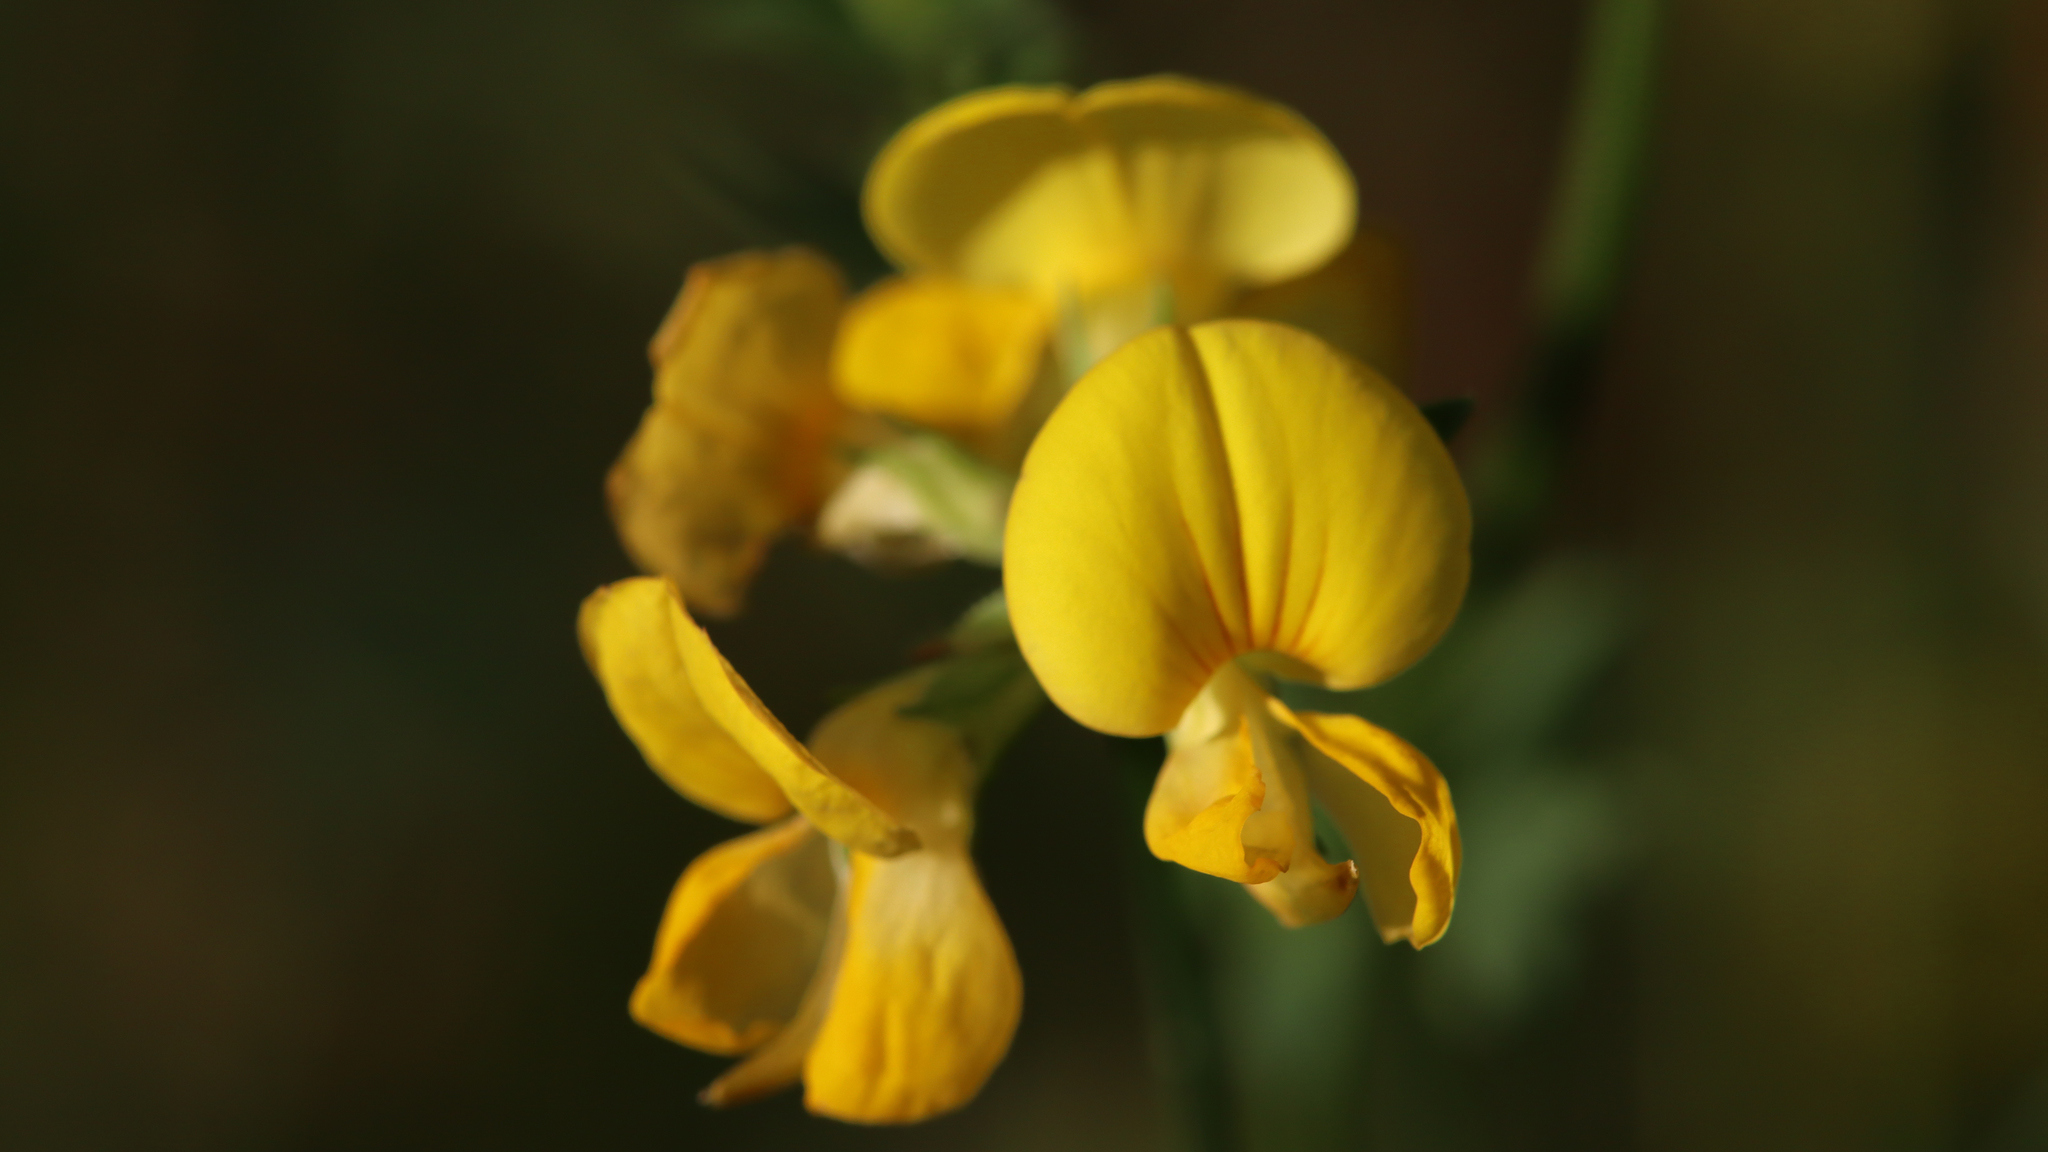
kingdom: Plantae
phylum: Tracheophyta
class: Magnoliopsida
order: Fabales
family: Fabaceae
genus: Lotus
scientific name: Lotus corniculatus
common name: Common bird's-foot-trefoil
